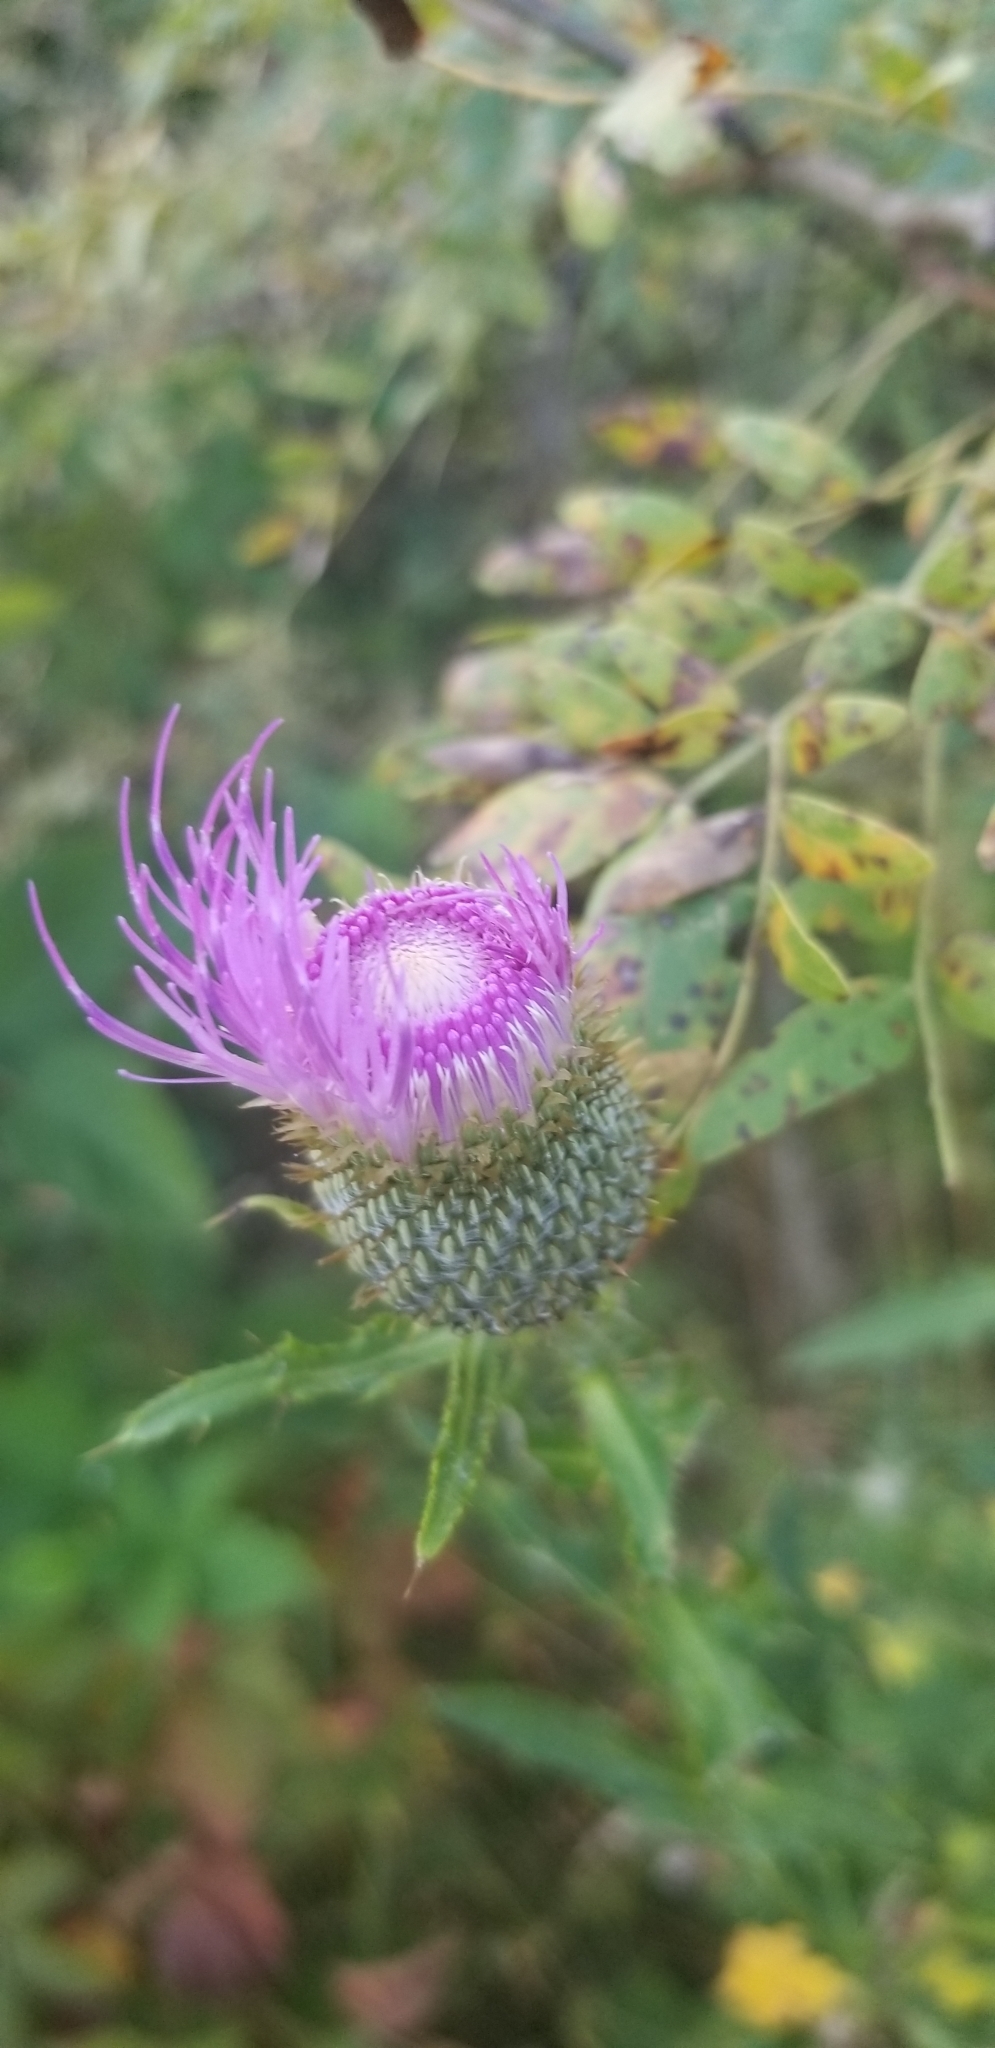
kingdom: Plantae
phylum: Tracheophyta
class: Magnoliopsida
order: Asterales
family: Asteraceae
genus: Cirsium
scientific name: Cirsium altissimum
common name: Roadside thistle
